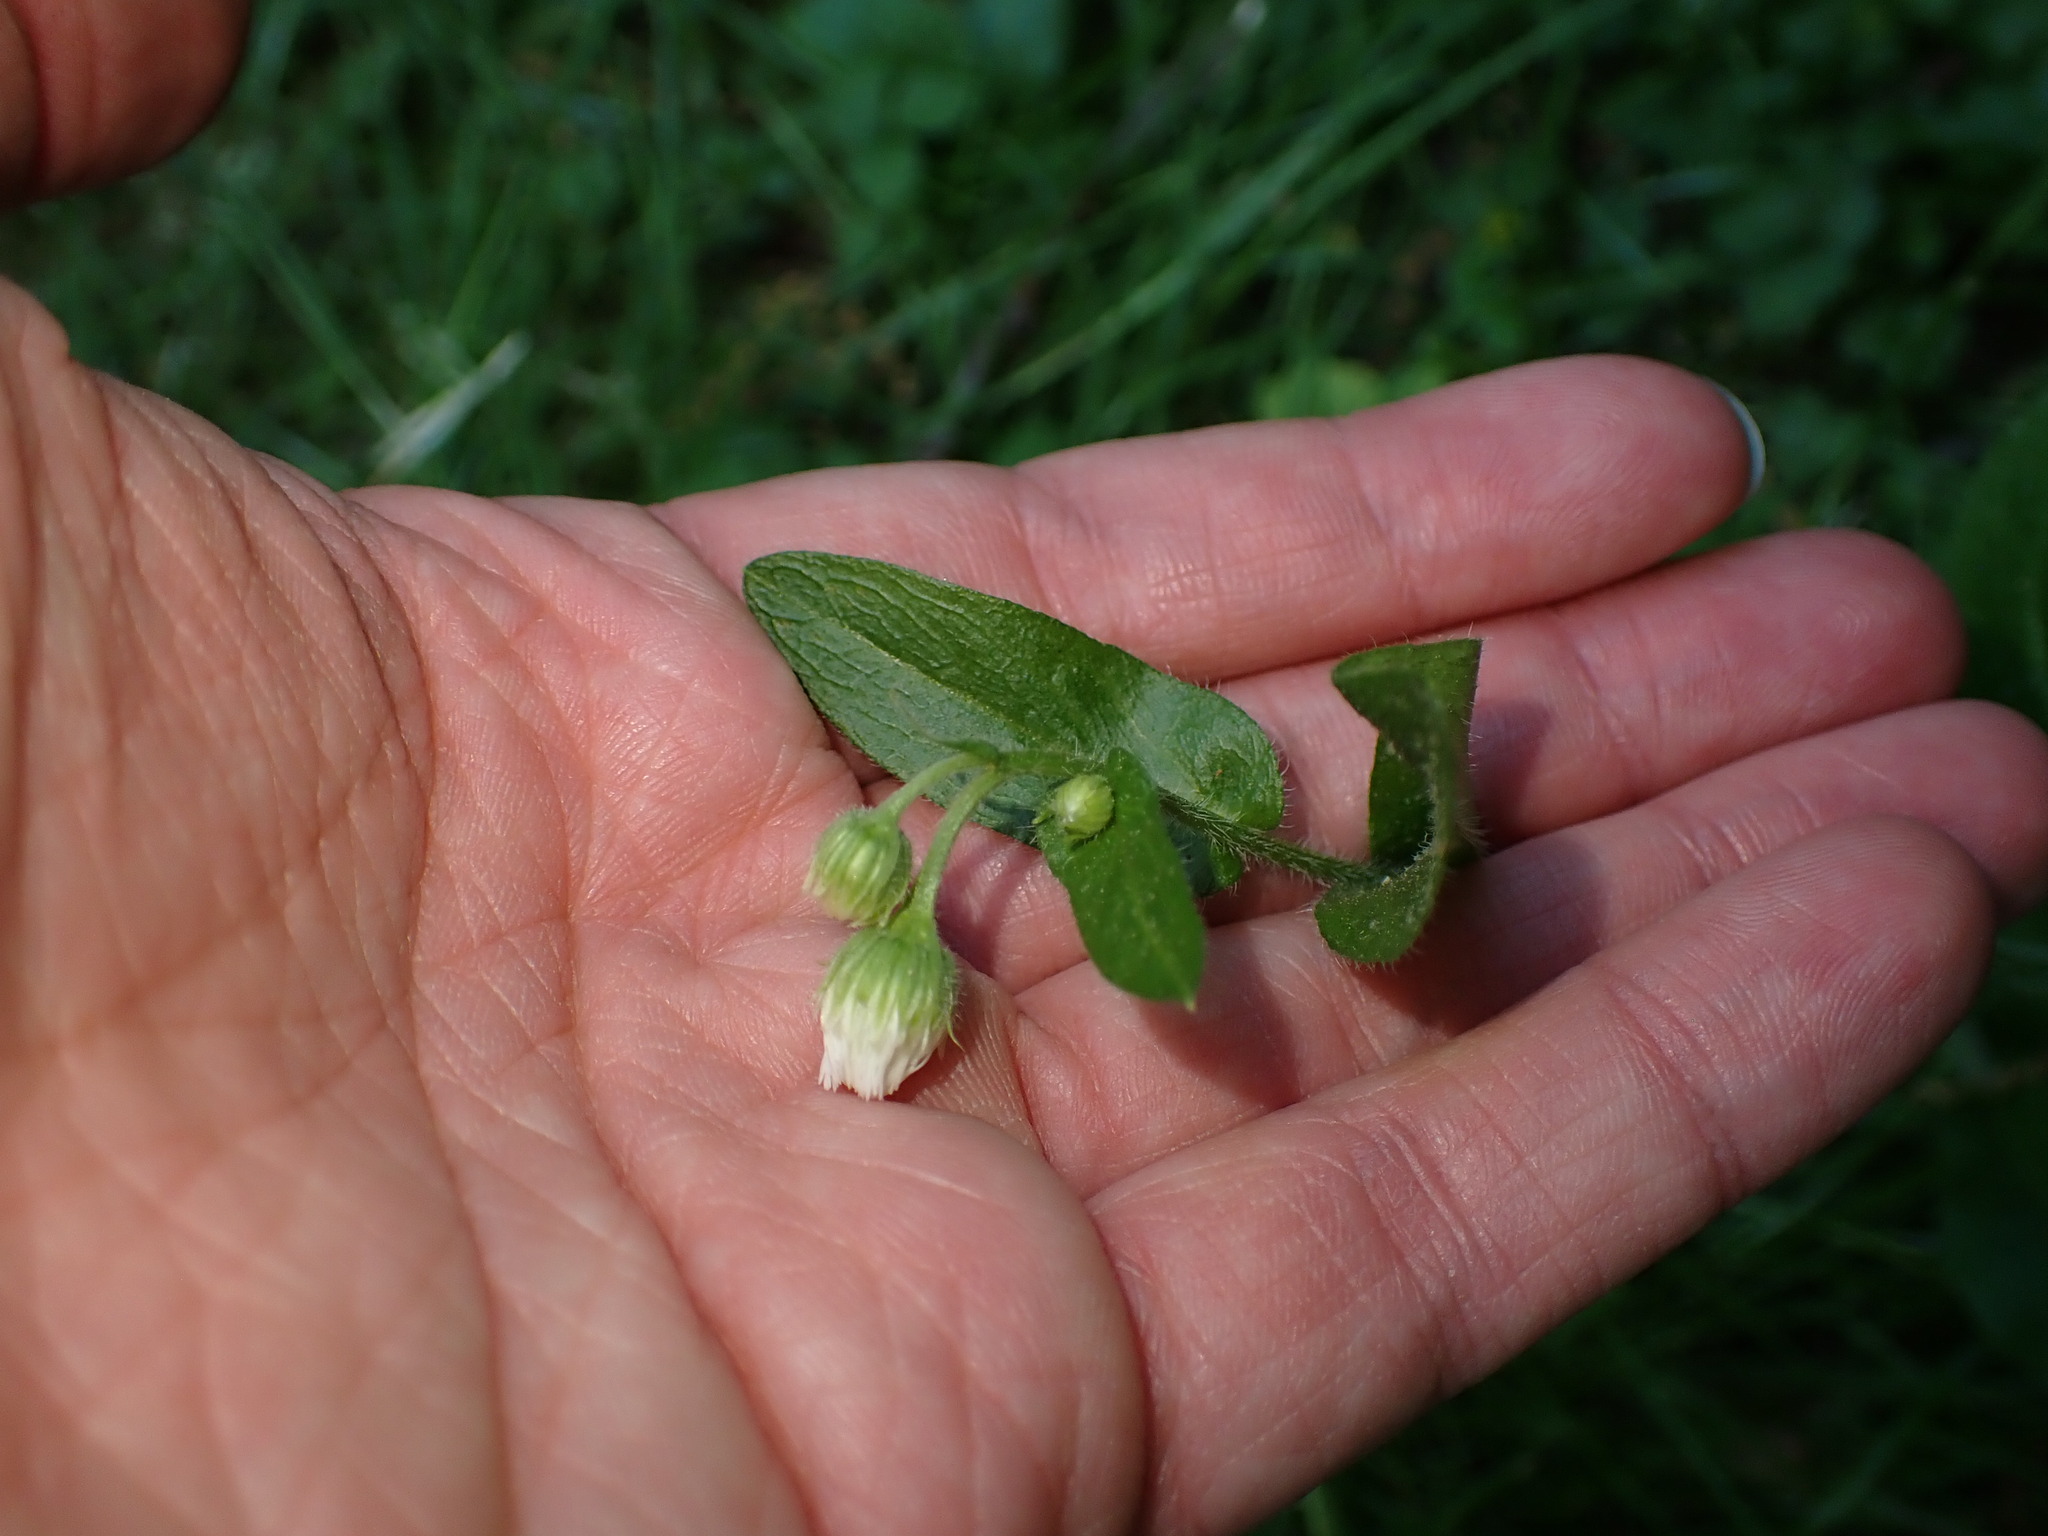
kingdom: Plantae
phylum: Tracheophyta
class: Magnoliopsida
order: Asterales
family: Asteraceae
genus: Erigeron
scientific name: Erigeron philadelphicus
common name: Robin's-plantain
